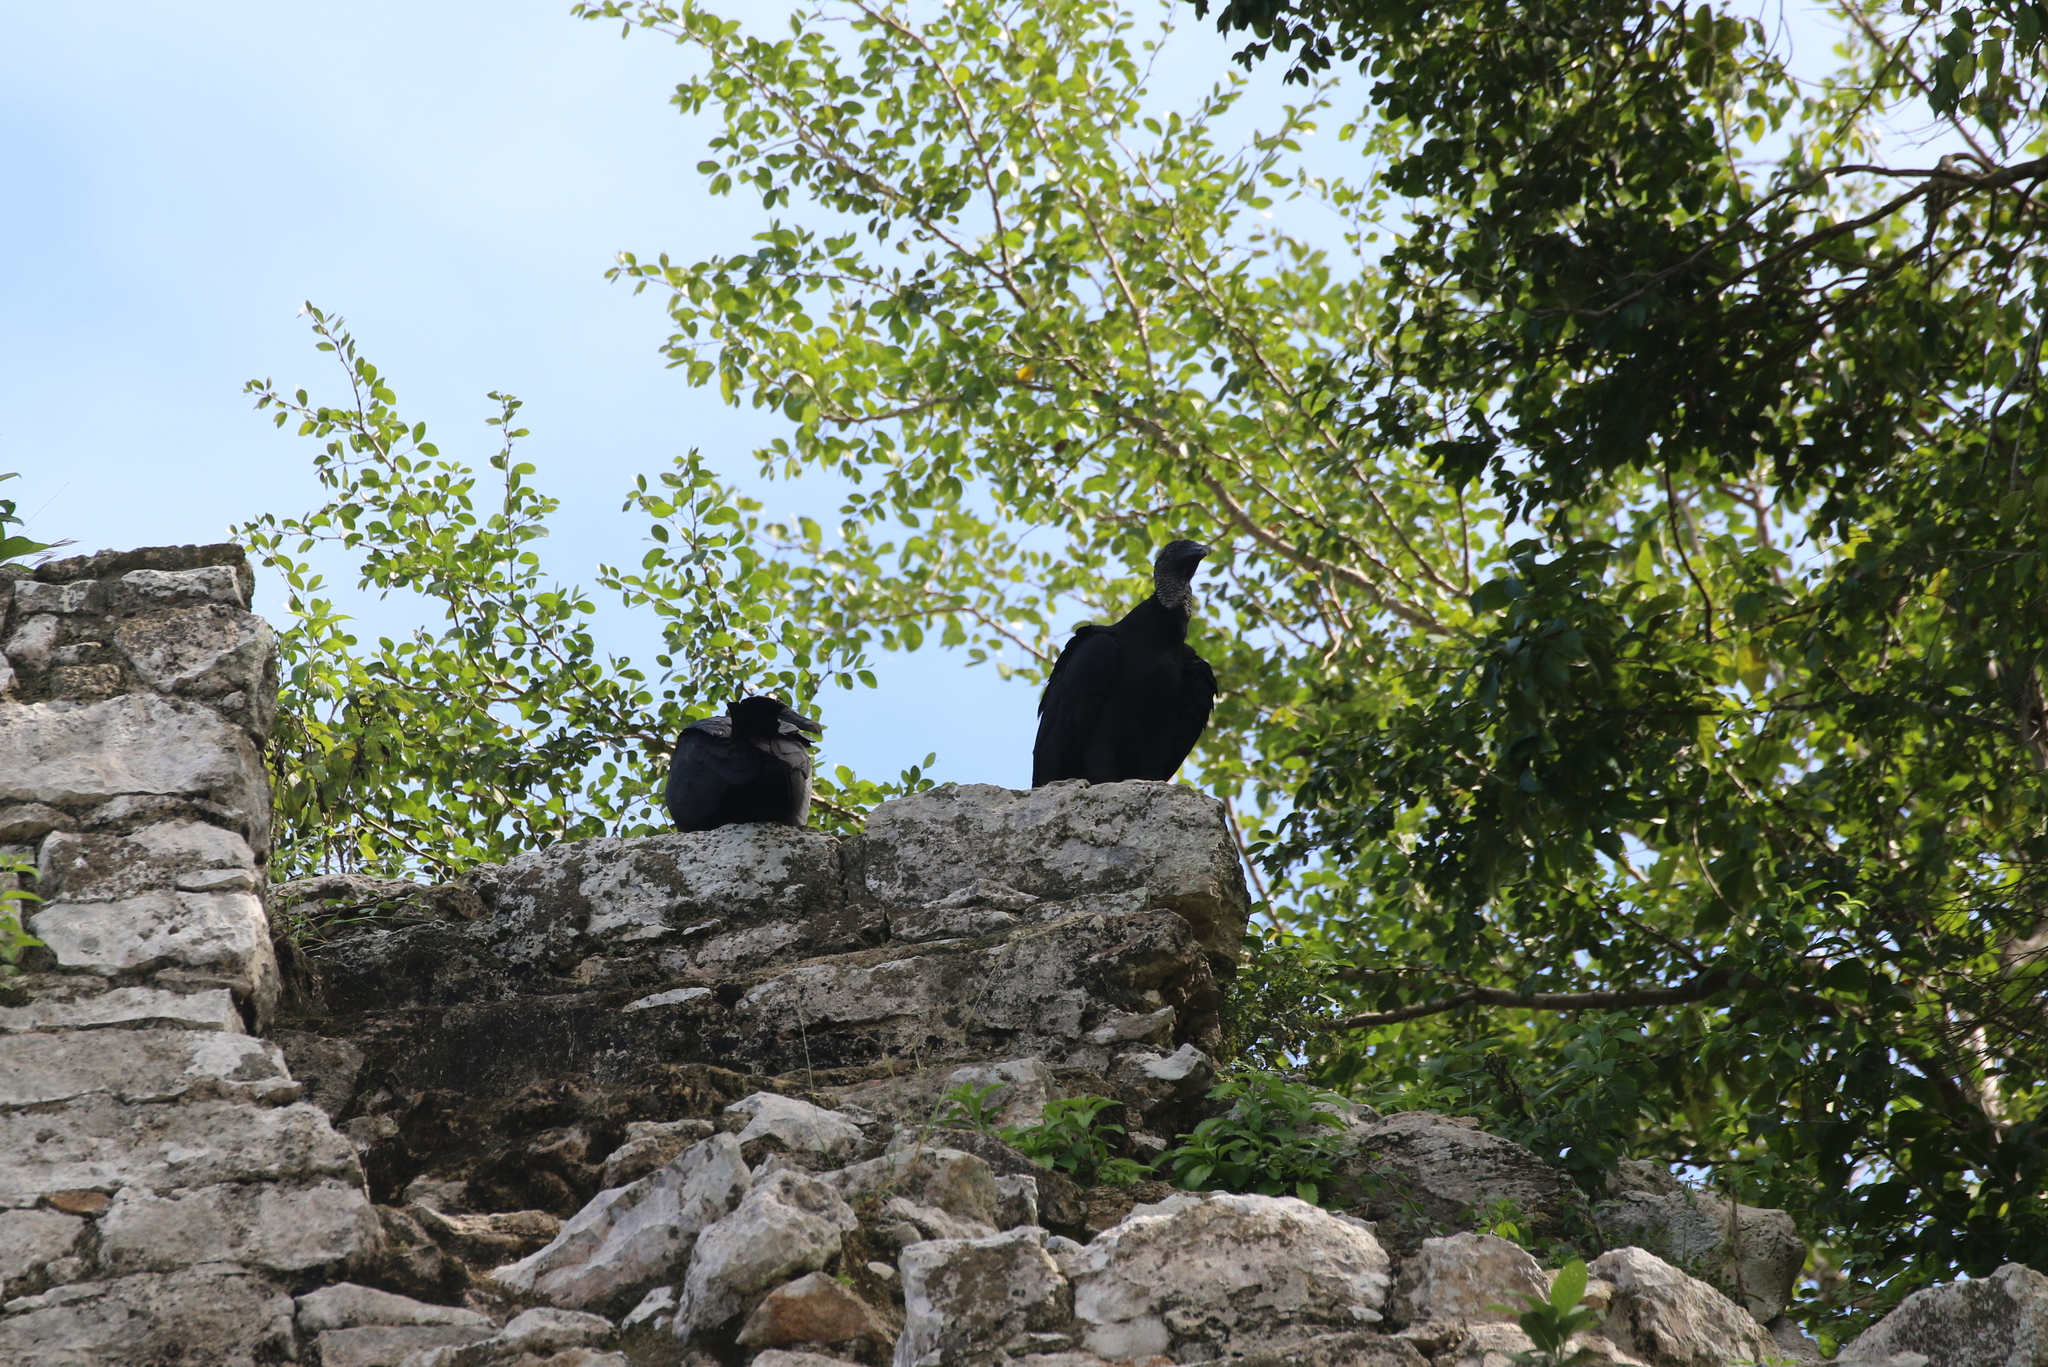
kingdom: Animalia
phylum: Chordata
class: Aves
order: Accipitriformes
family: Cathartidae
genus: Coragyps
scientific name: Coragyps atratus
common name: Black vulture
